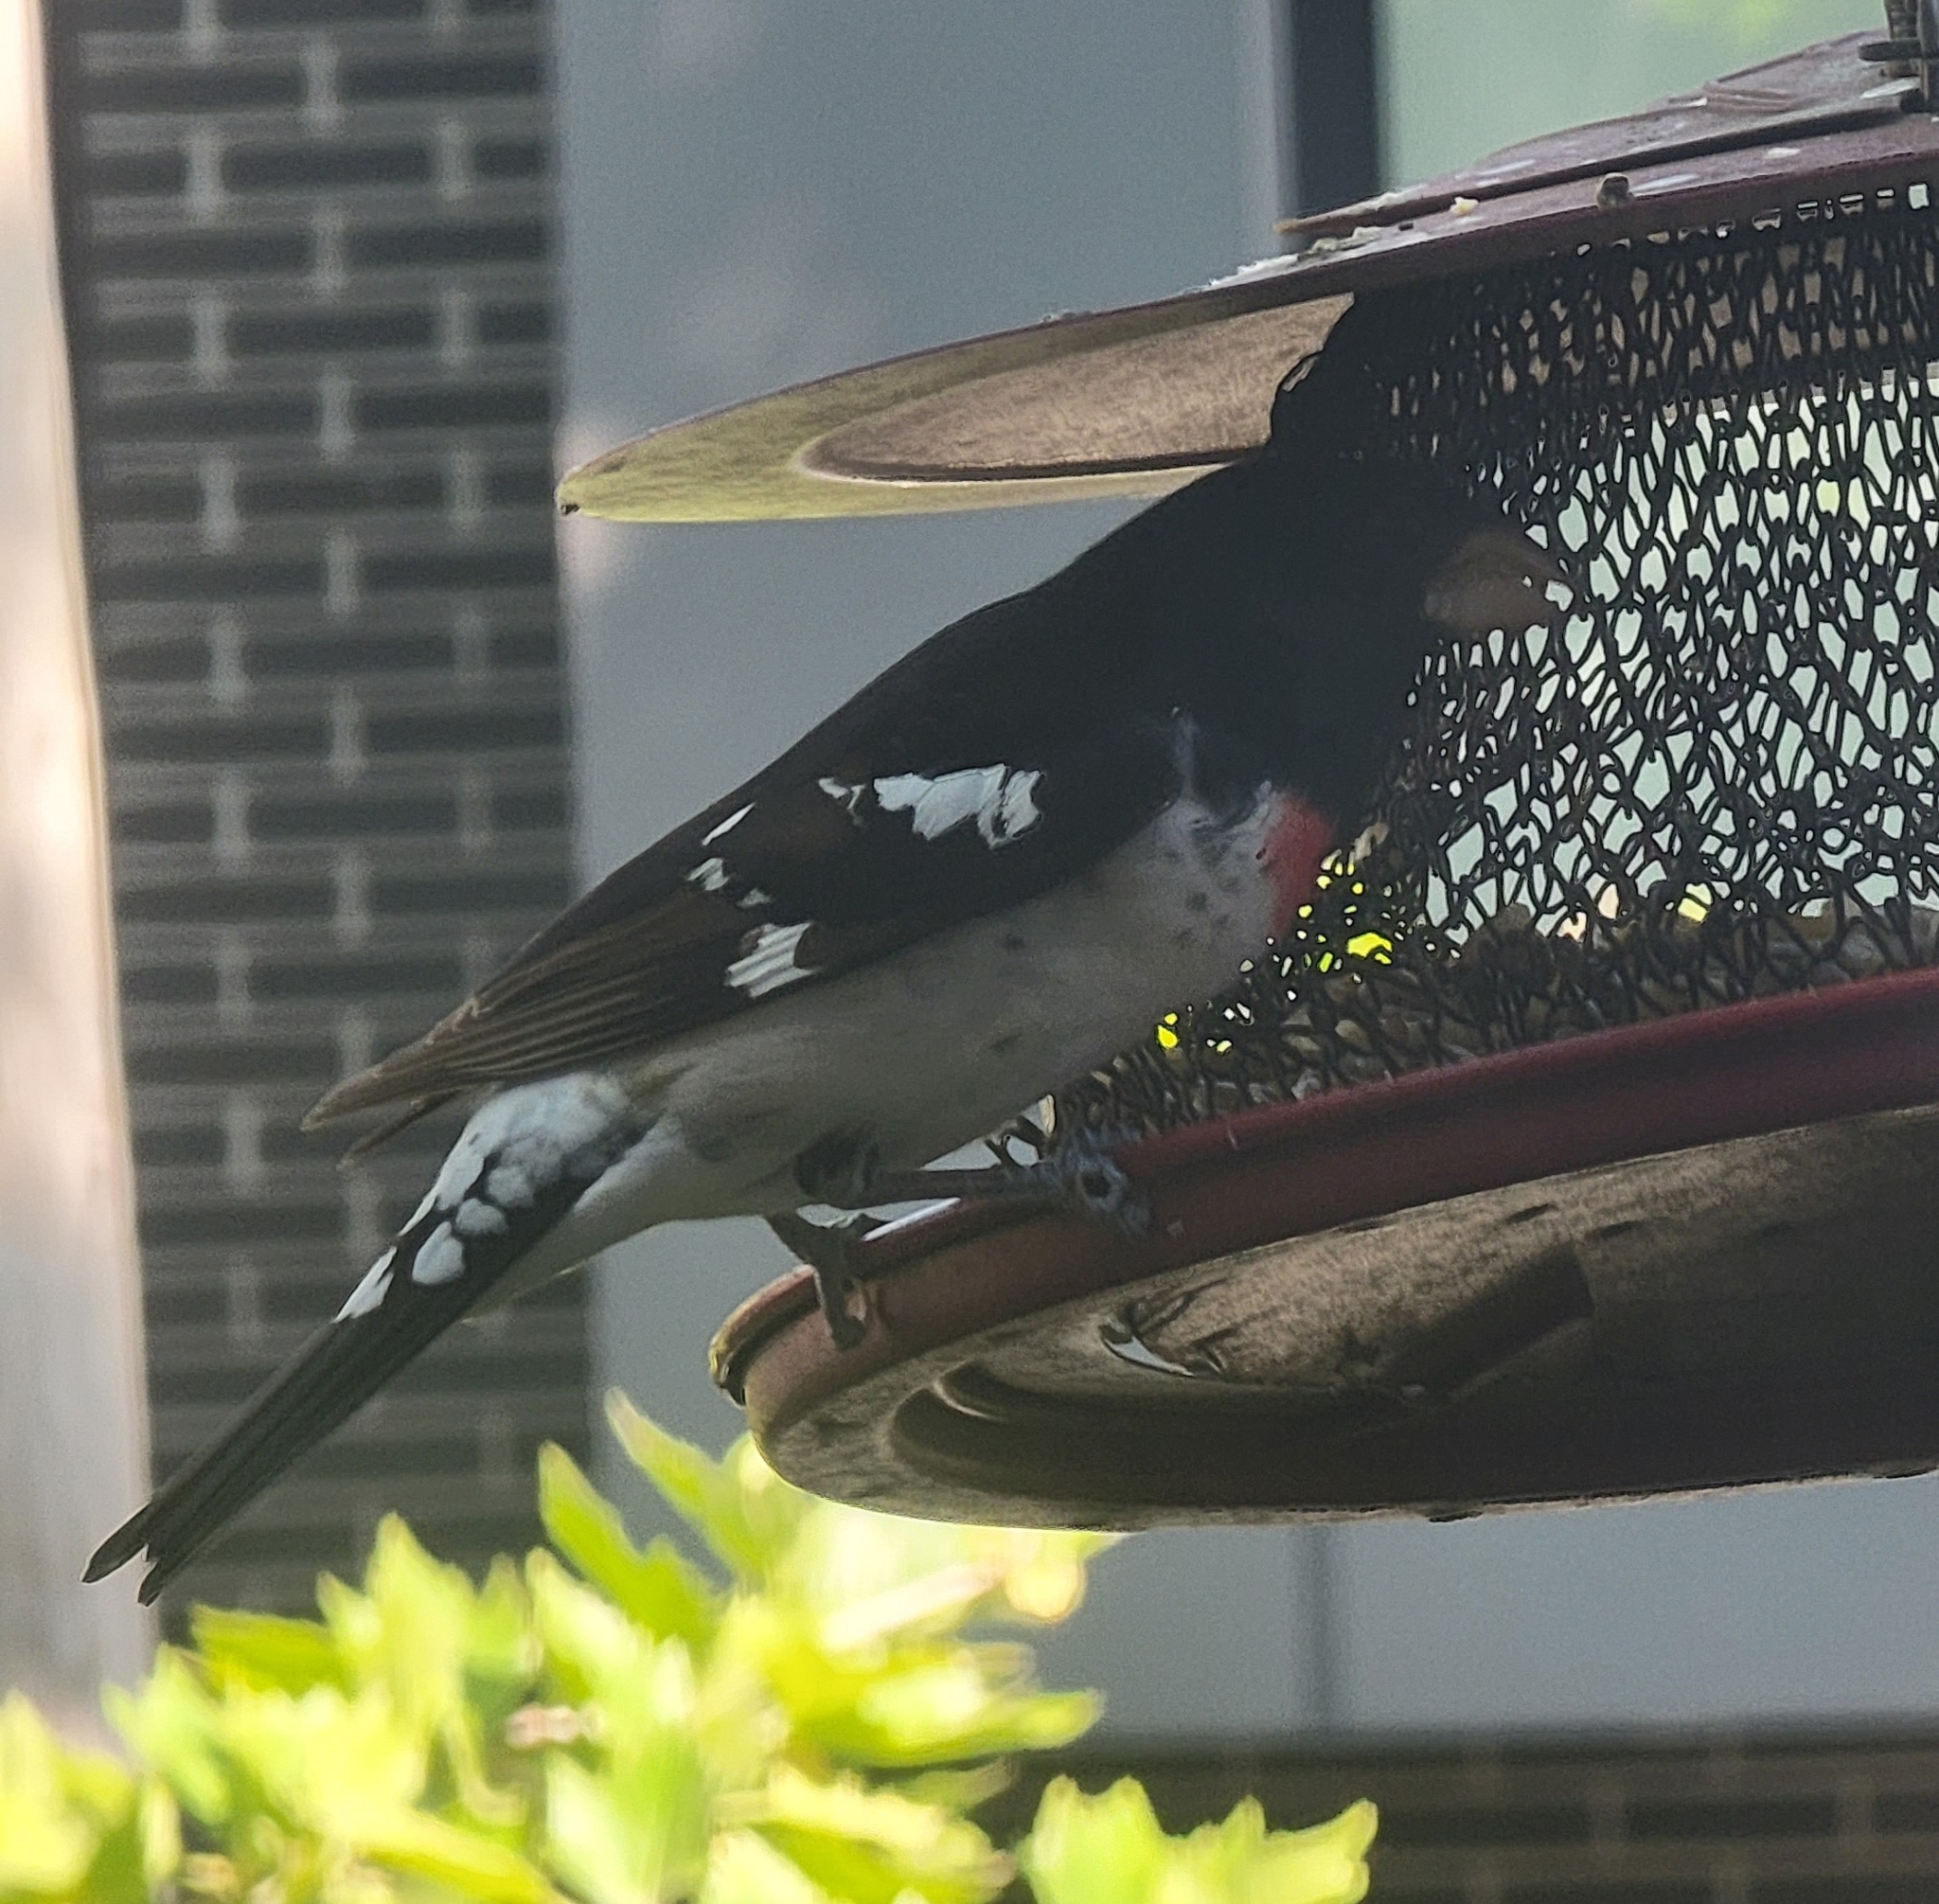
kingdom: Animalia
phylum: Chordata
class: Aves
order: Passeriformes
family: Cardinalidae
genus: Pheucticus
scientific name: Pheucticus ludovicianus
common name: Rose-breasted grosbeak
